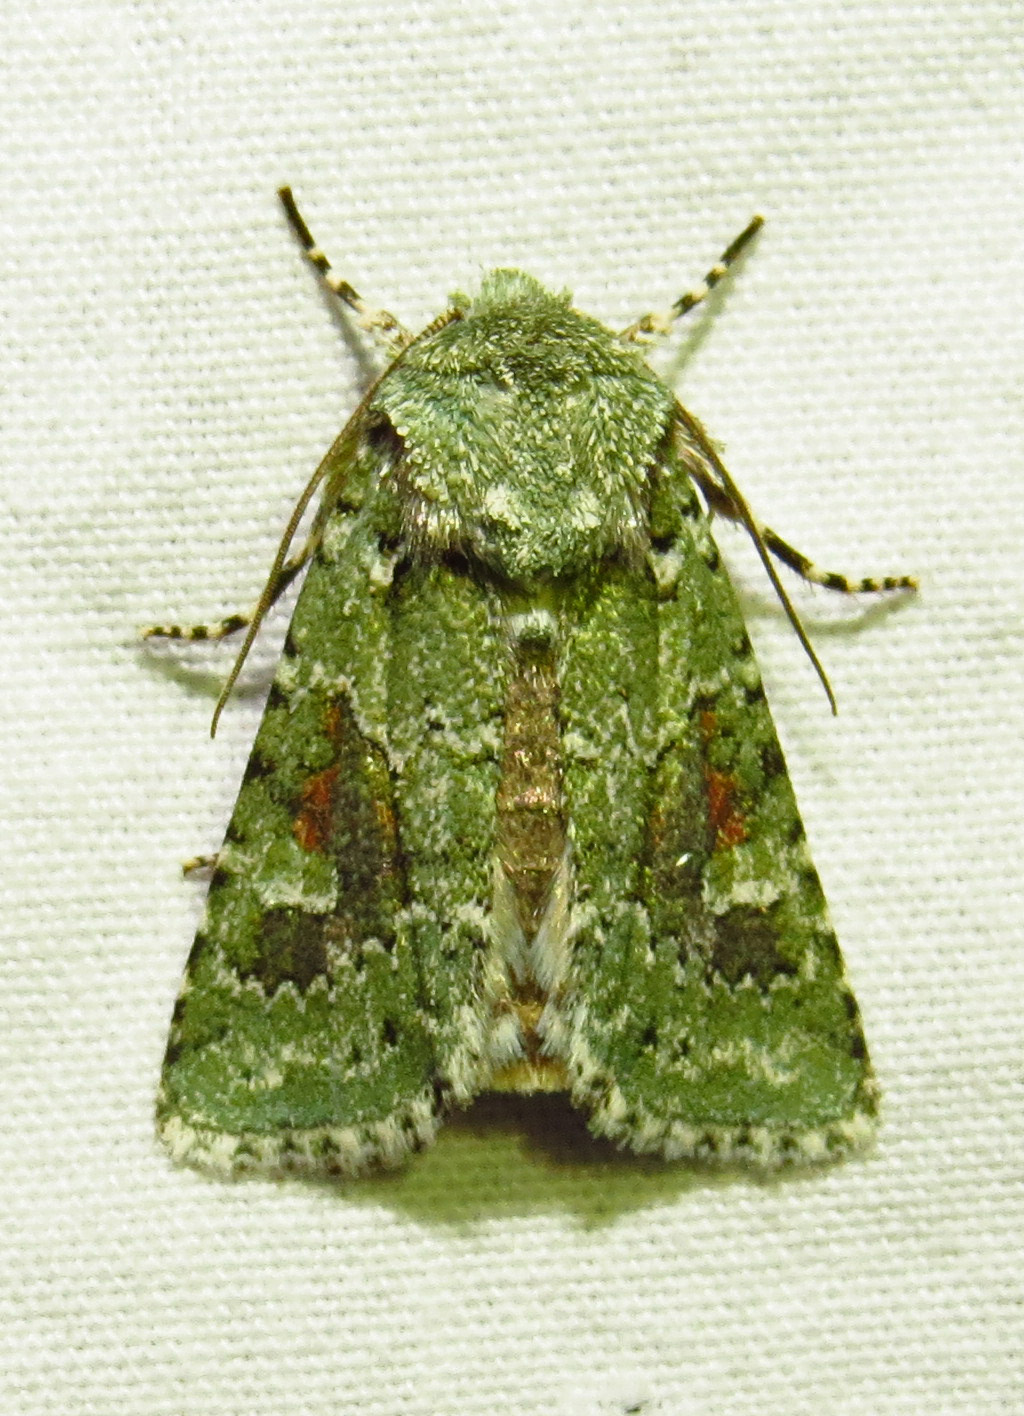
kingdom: Animalia
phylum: Arthropoda
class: Insecta
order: Lepidoptera
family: Noctuidae
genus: Lacinipolia
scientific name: Lacinipolia laudabilis
